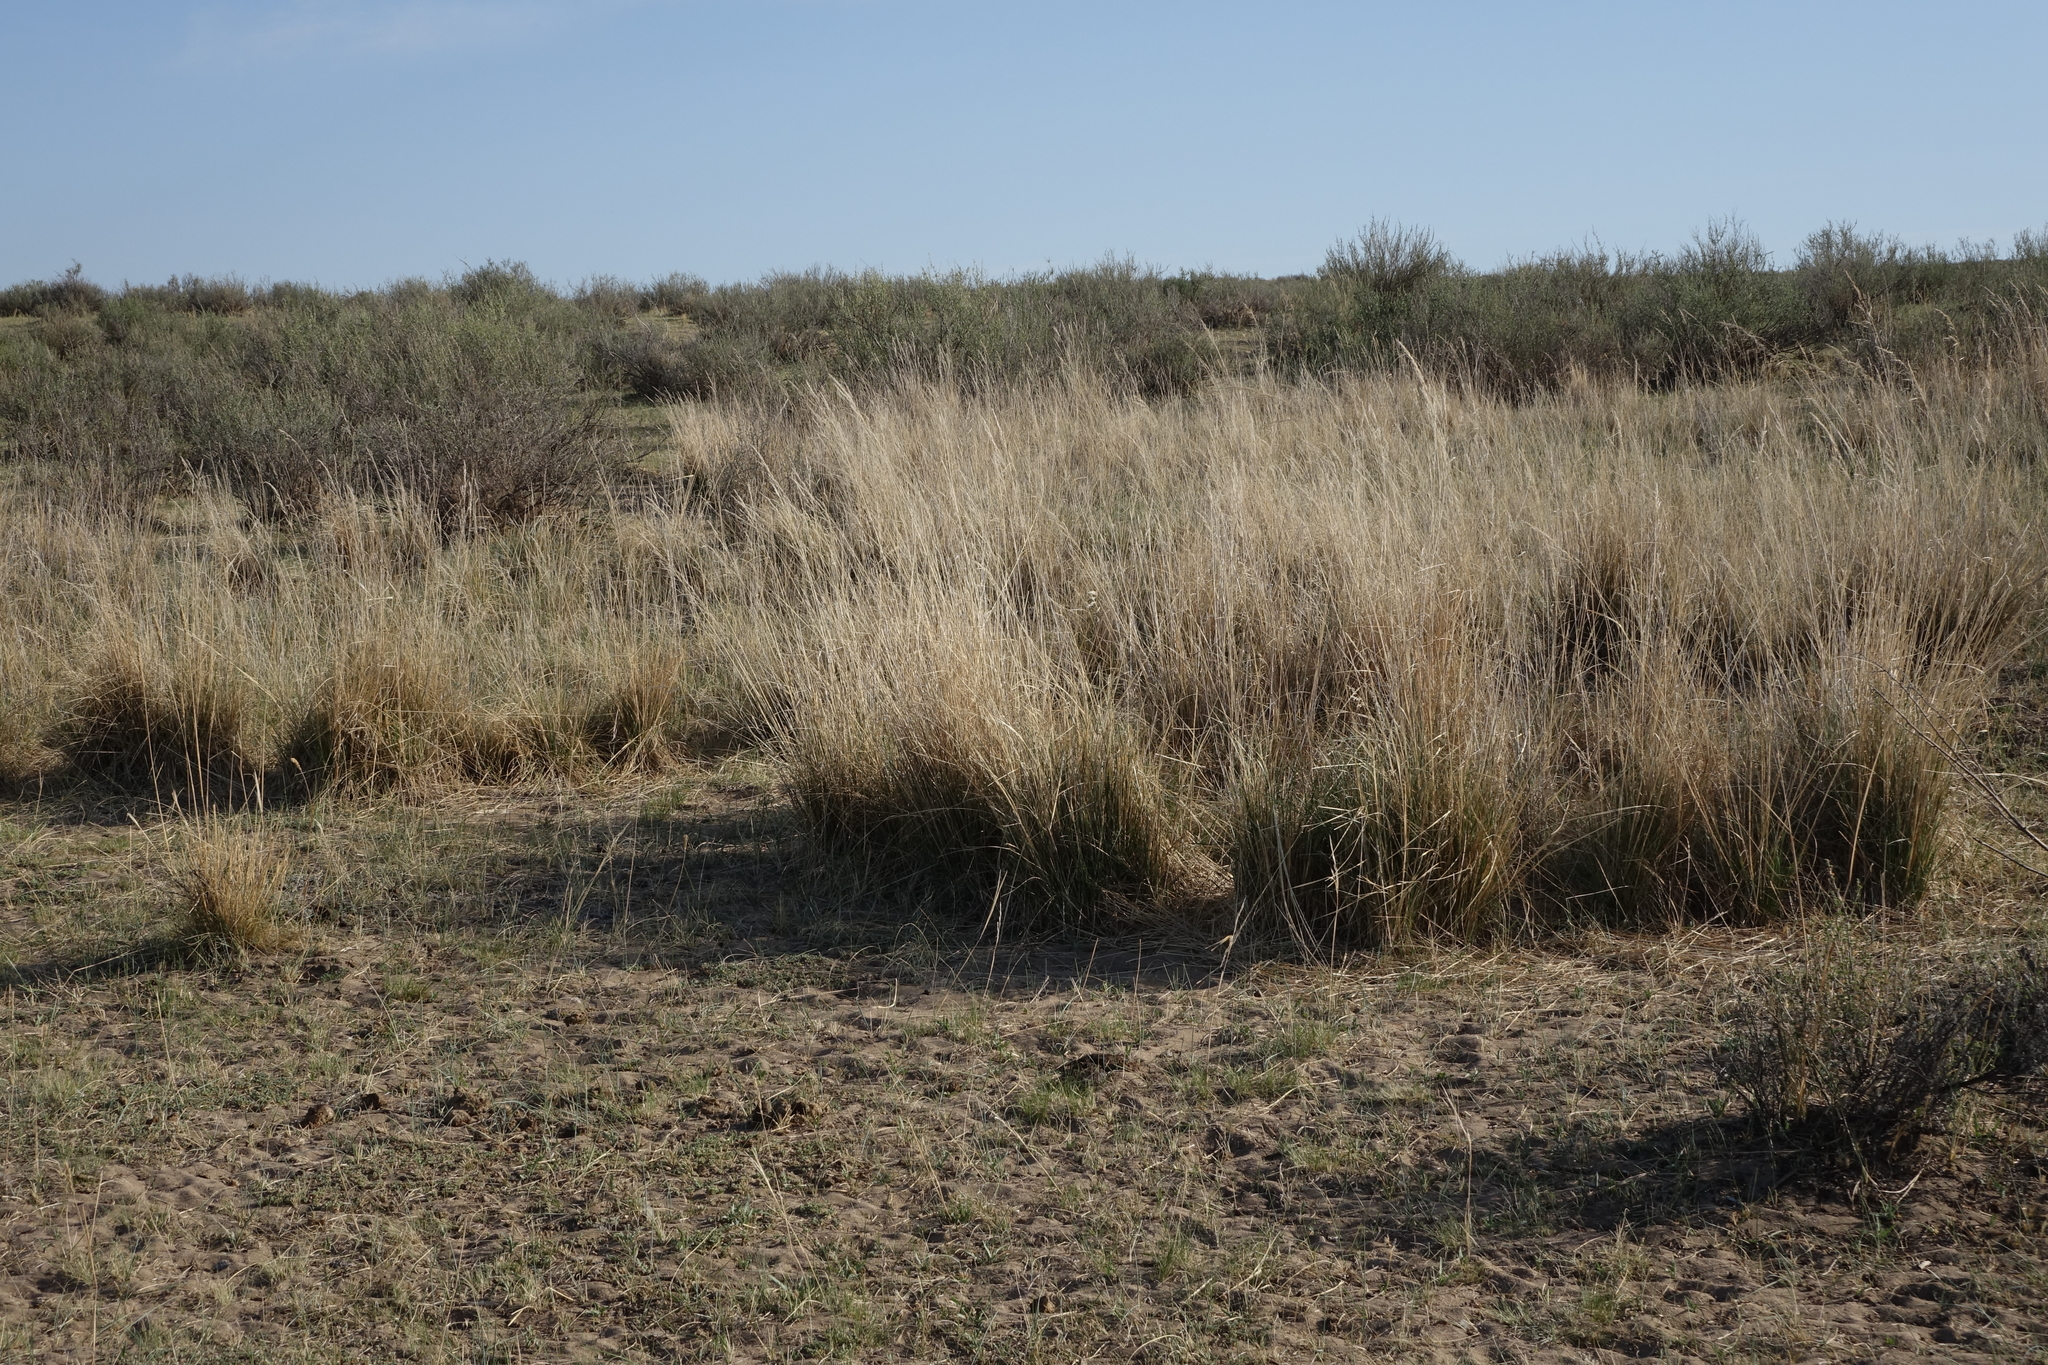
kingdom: Plantae
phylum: Tracheophyta
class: Liliopsida
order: Poales
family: Poaceae
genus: Neotrinia
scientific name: Neotrinia splendens
